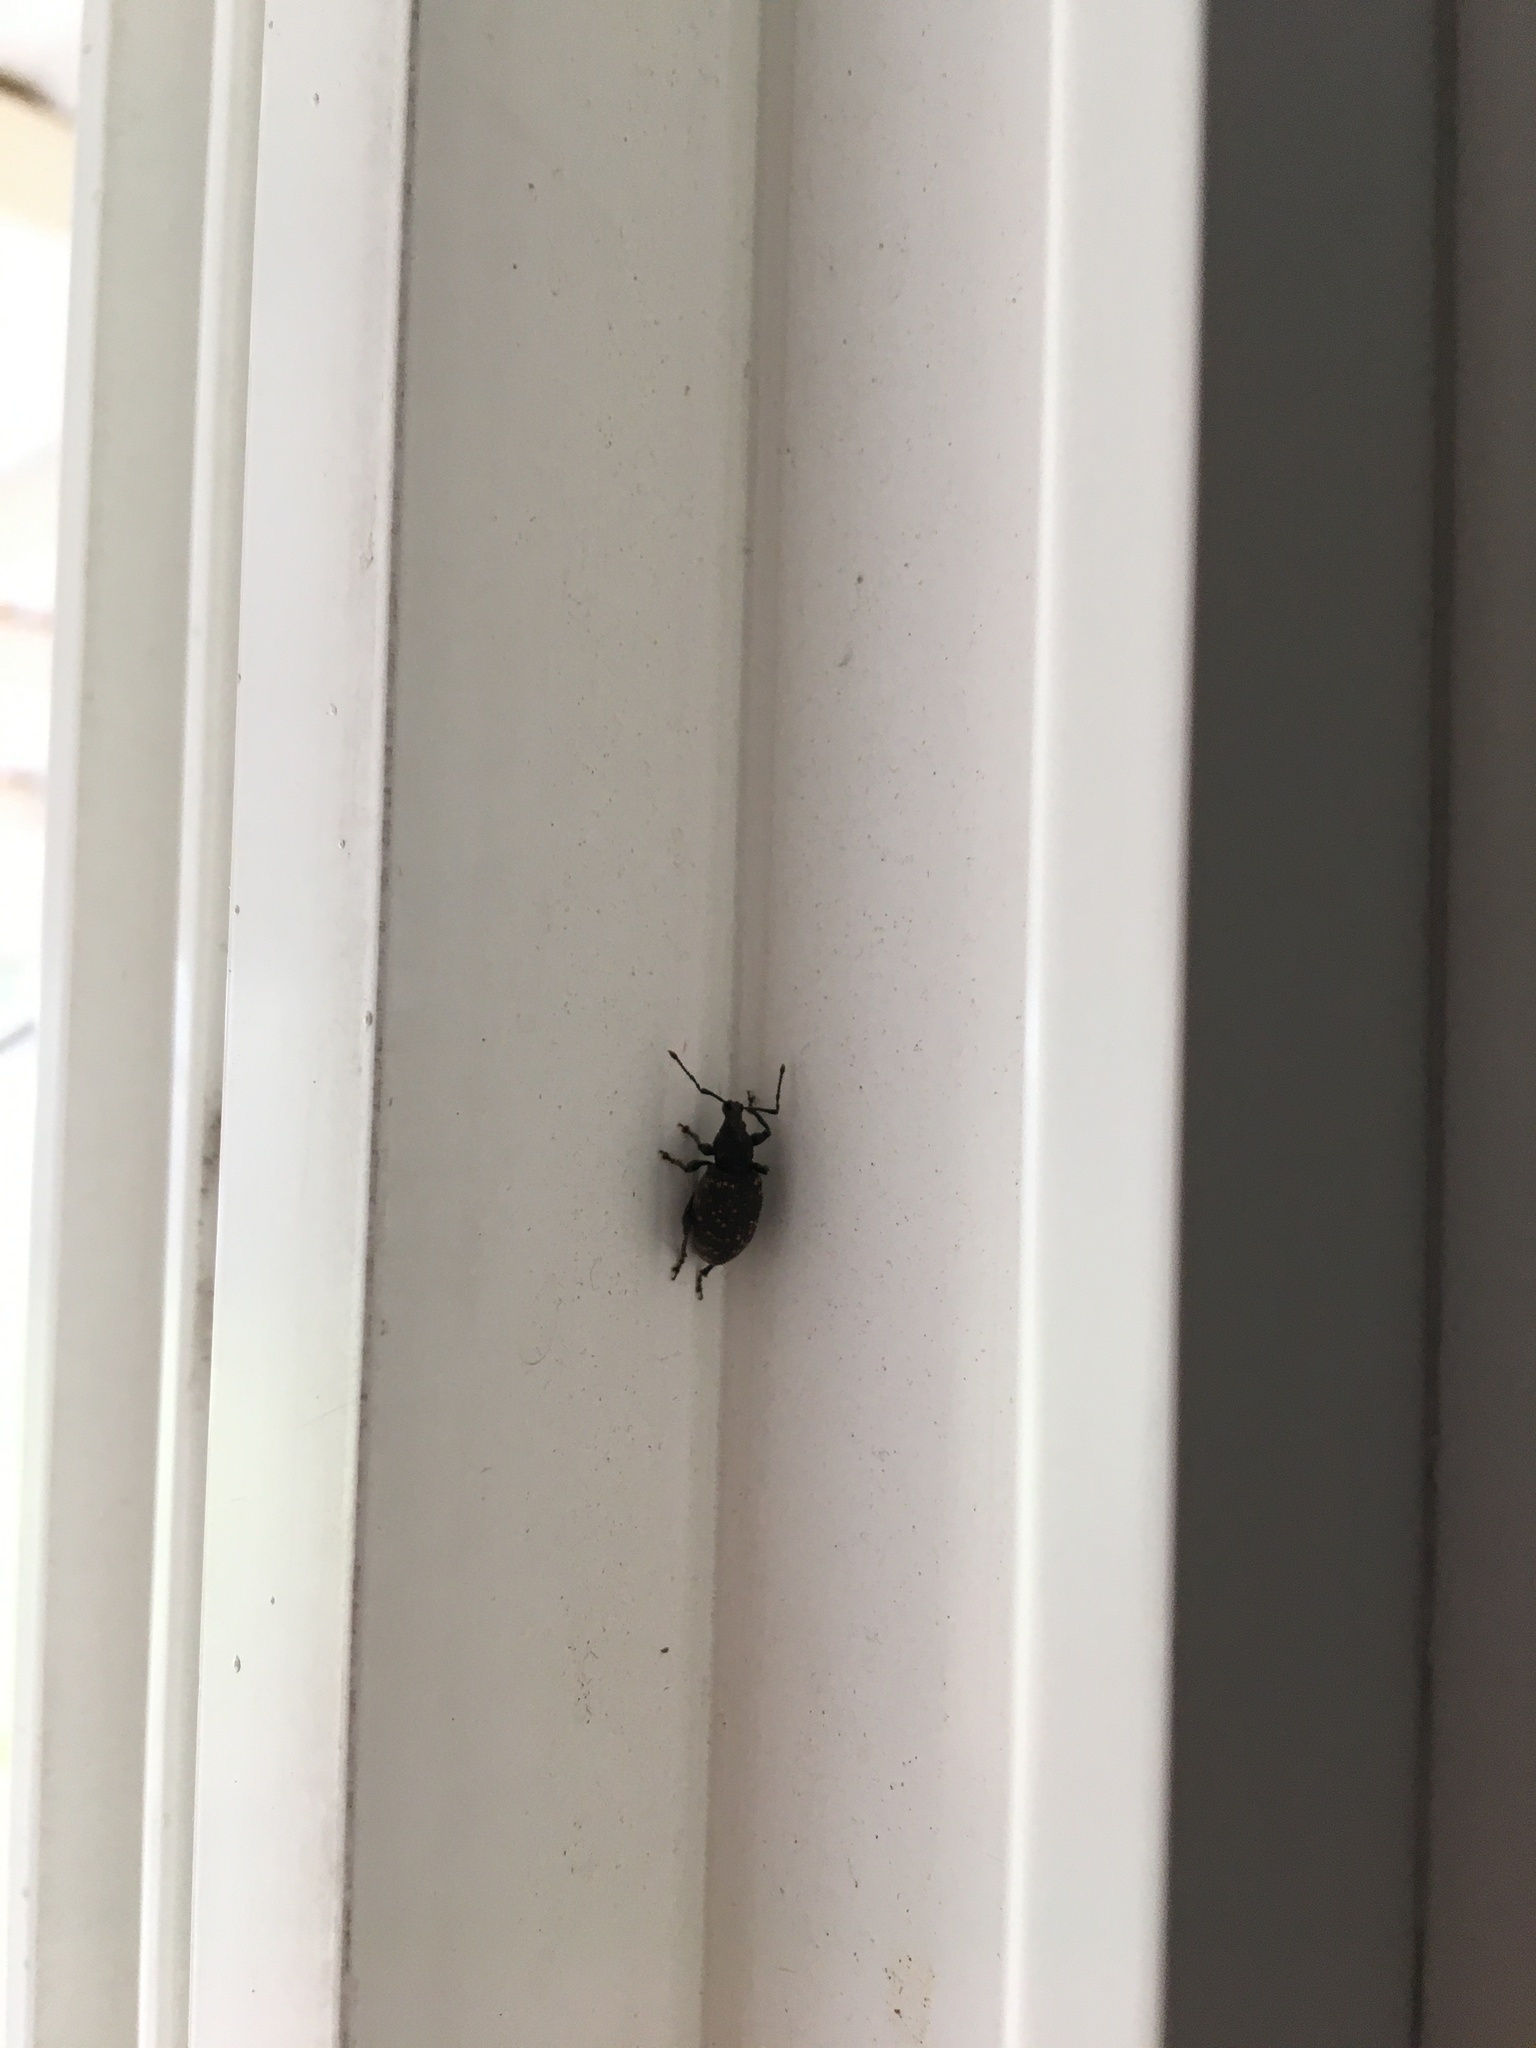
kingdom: Animalia
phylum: Arthropoda
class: Insecta
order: Coleoptera
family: Curculionidae
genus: Otiorhynchus
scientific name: Otiorhynchus sulcatus
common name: Black vine weevil
